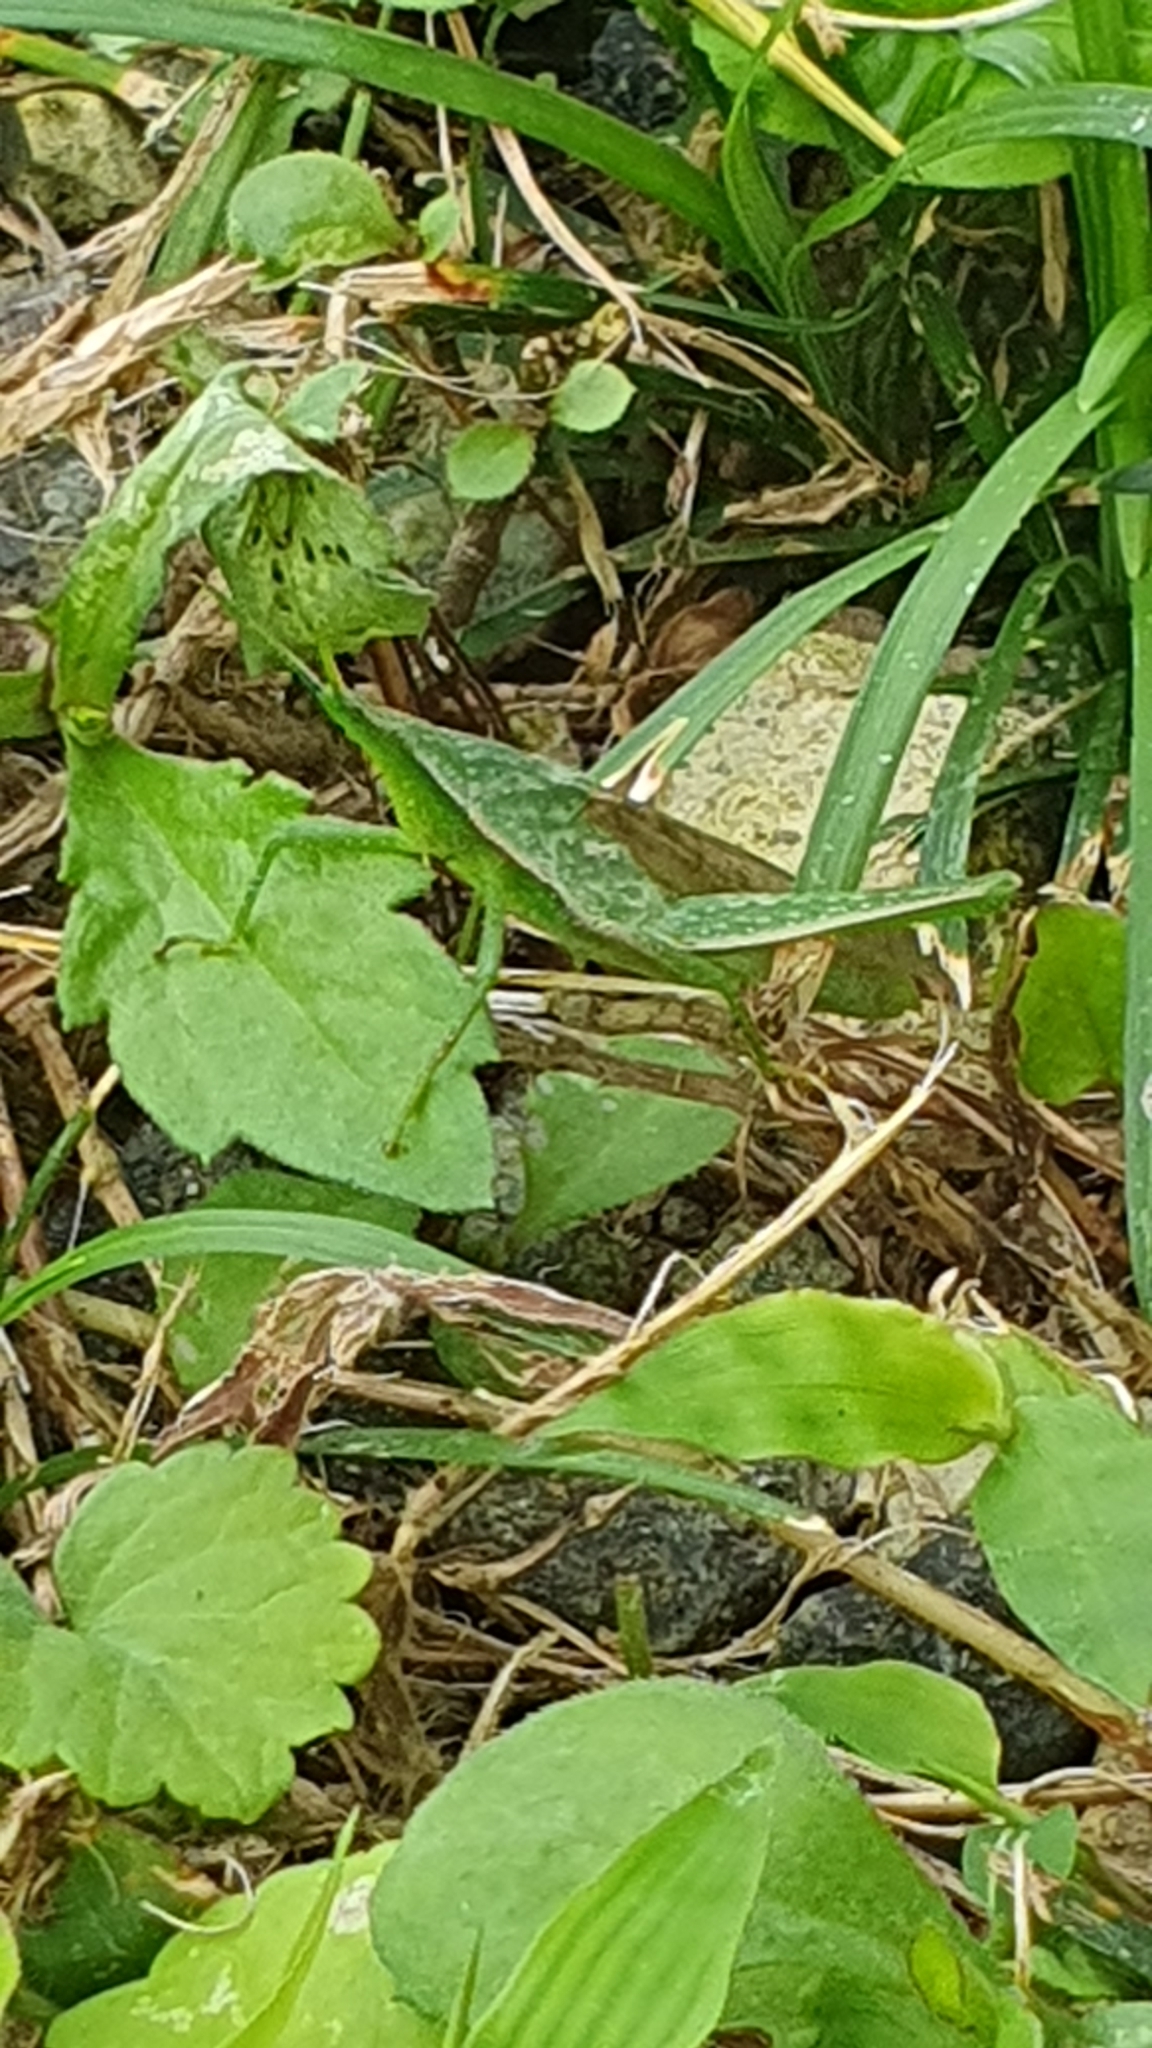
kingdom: Animalia
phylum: Arthropoda
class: Insecta
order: Orthoptera
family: Pyrgomorphidae
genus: Atractomorpha
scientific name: Atractomorpha lata
